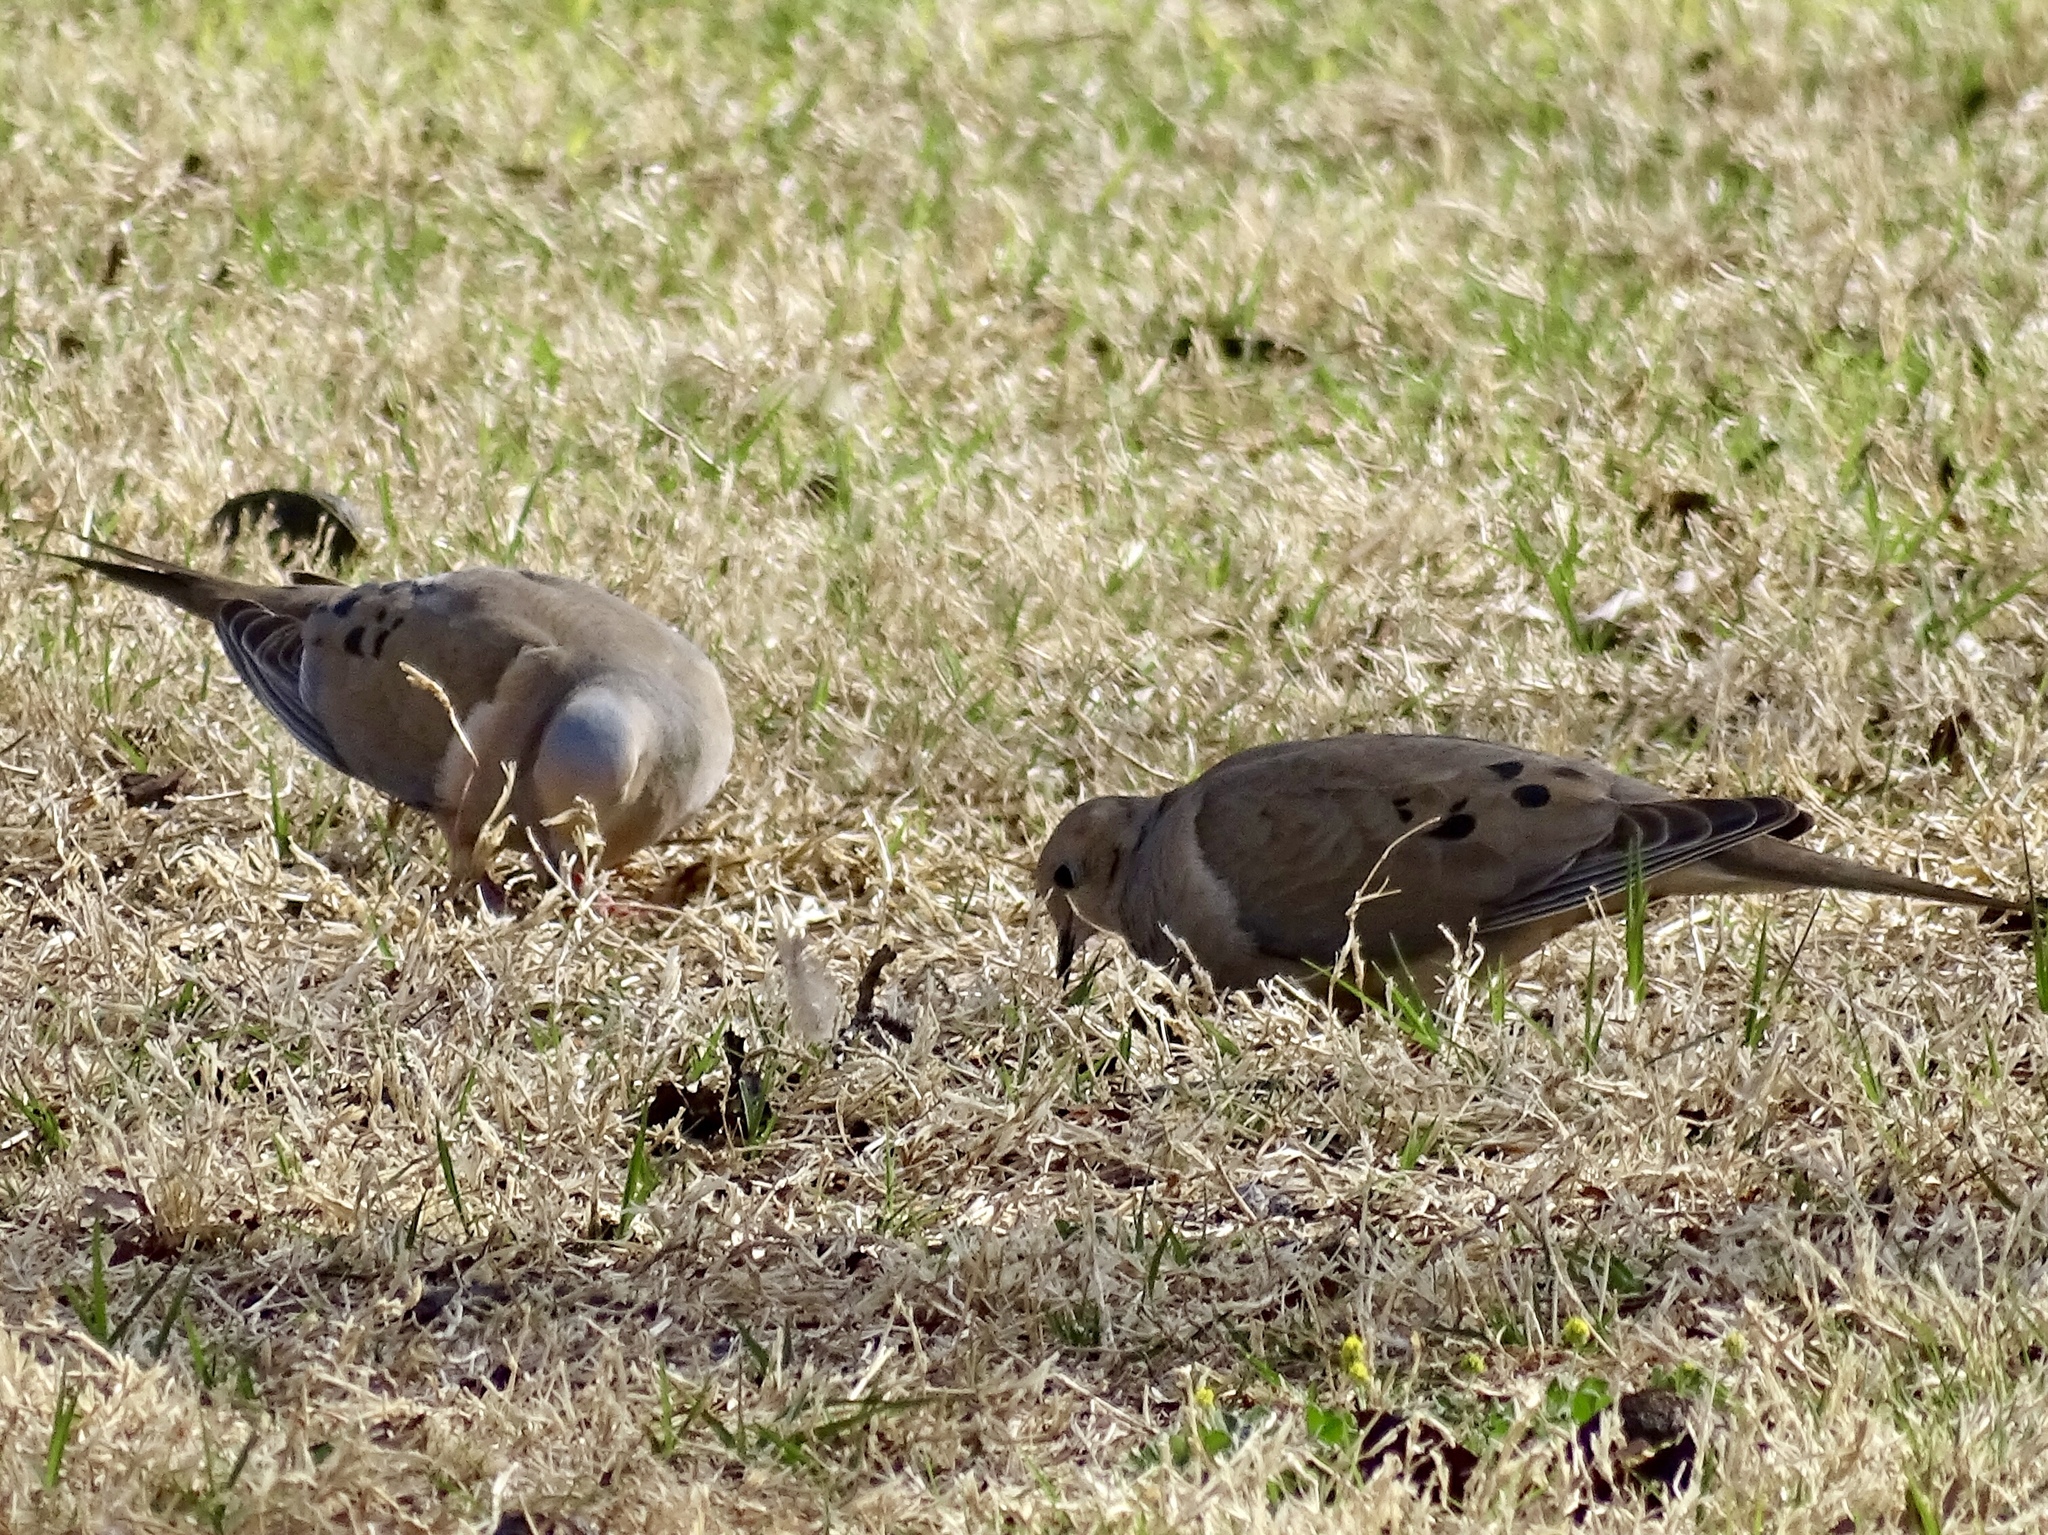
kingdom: Animalia
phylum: Chordata
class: Aves
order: Columbiformes
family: Columbidae
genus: Zenaida
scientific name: Zenaida macroura
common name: Mourning dove
